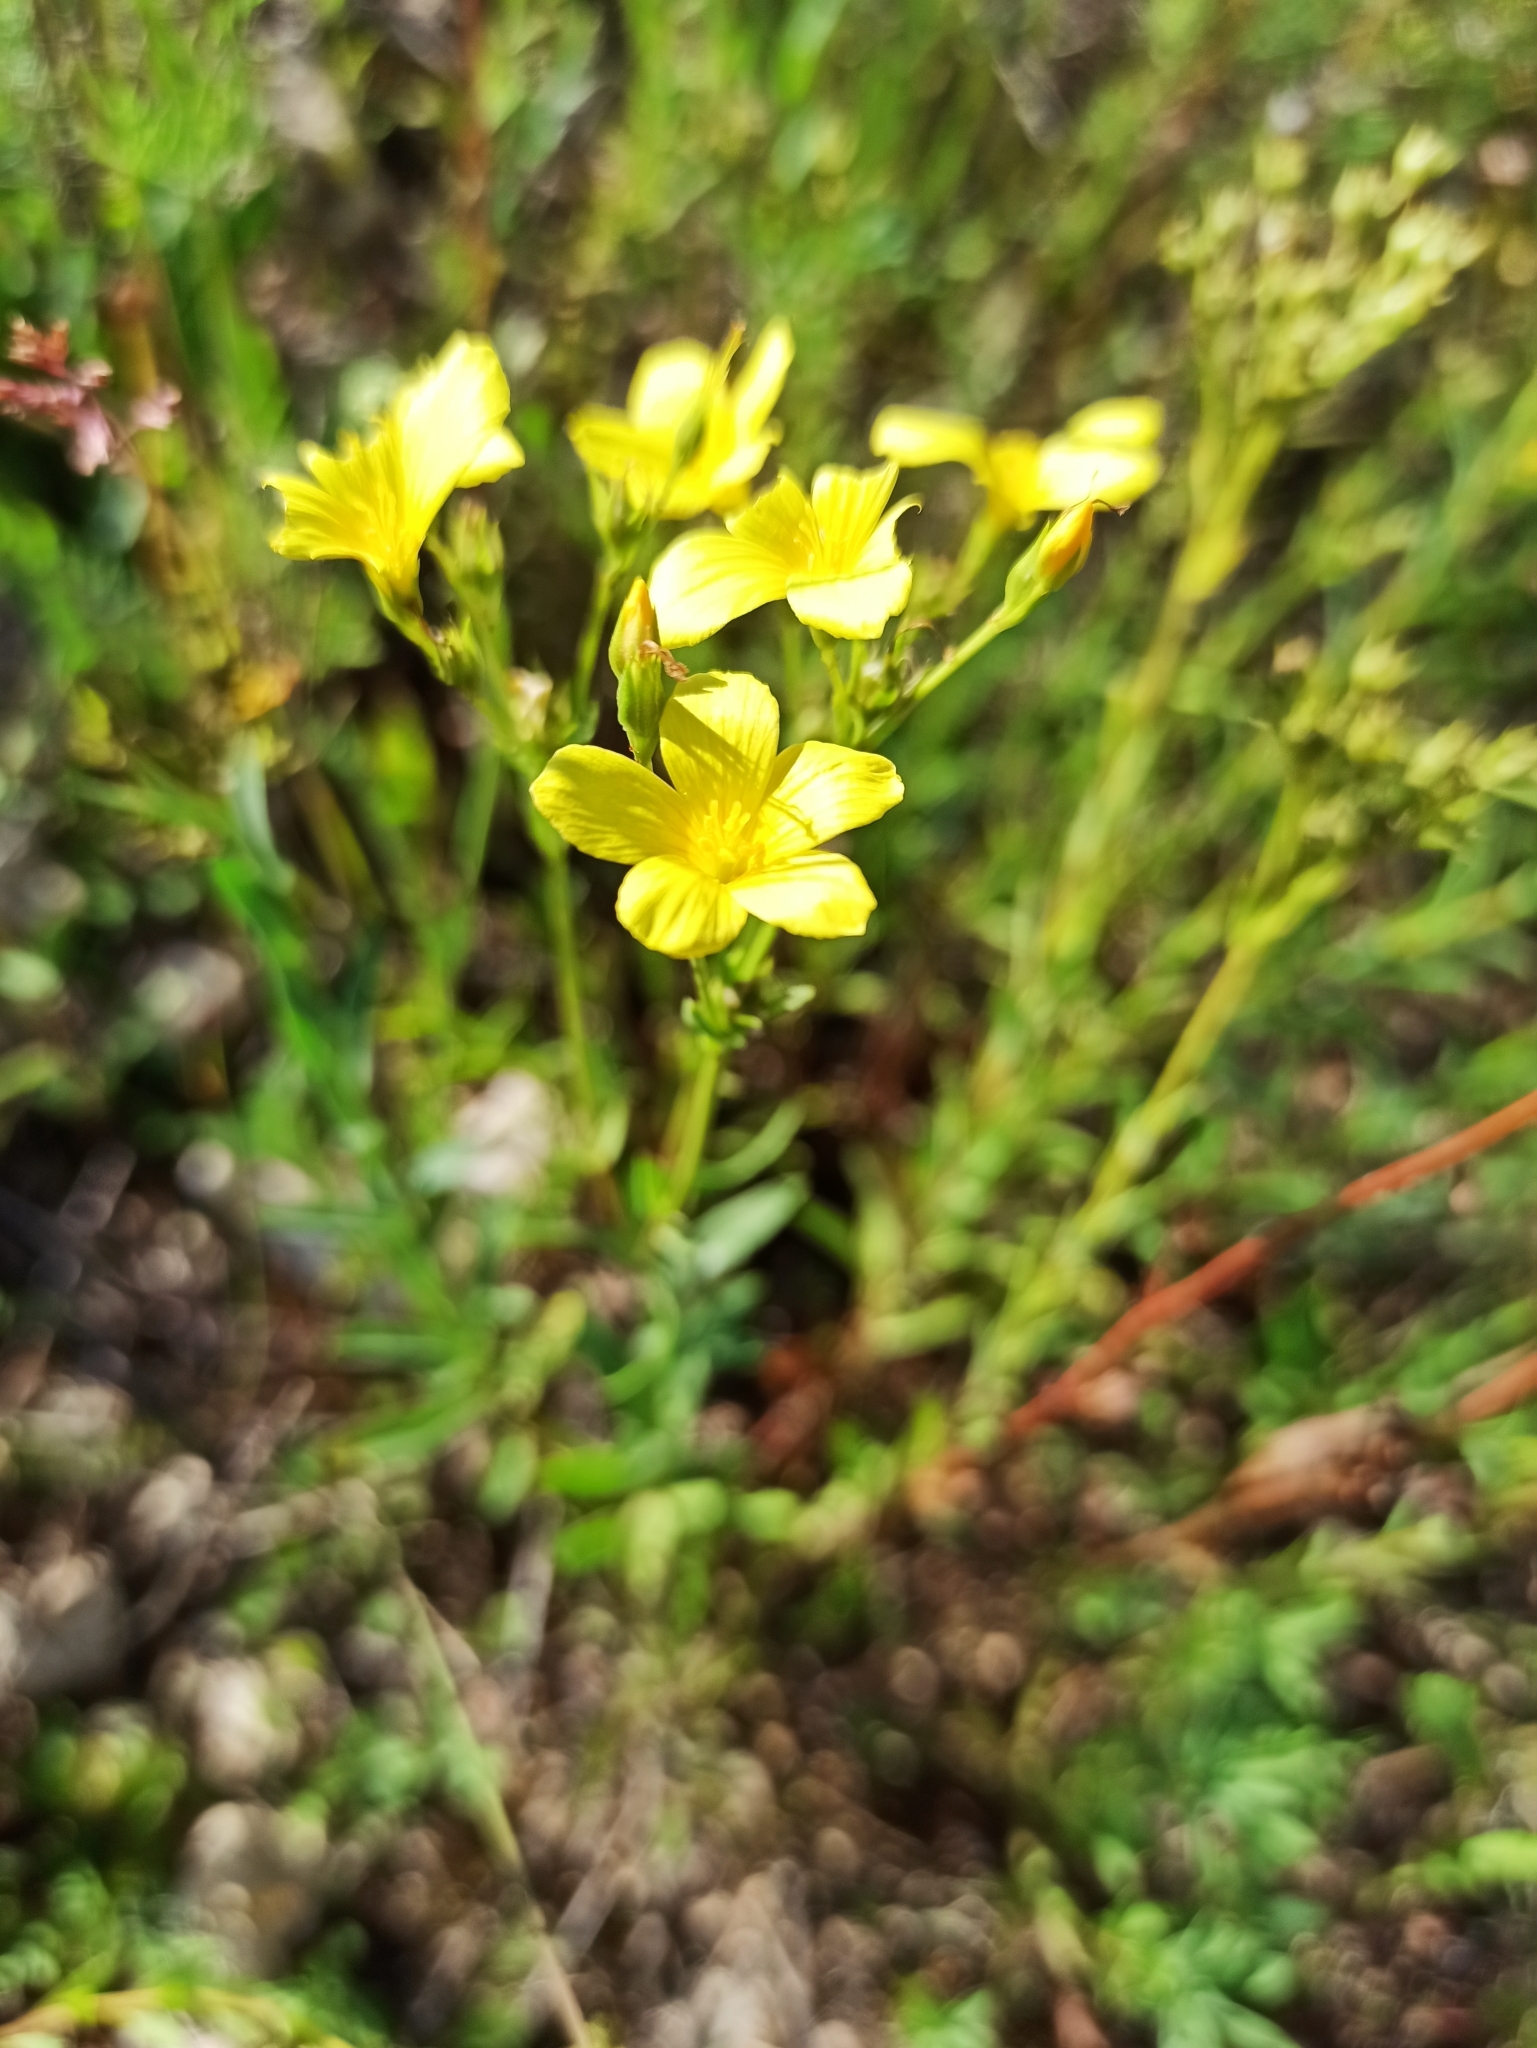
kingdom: Plantae
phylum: Tracheophyta
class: Magnoliopsida
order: Malpighiales
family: Linaceae
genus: Linum
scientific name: Linum flavum
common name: Yellow flax
